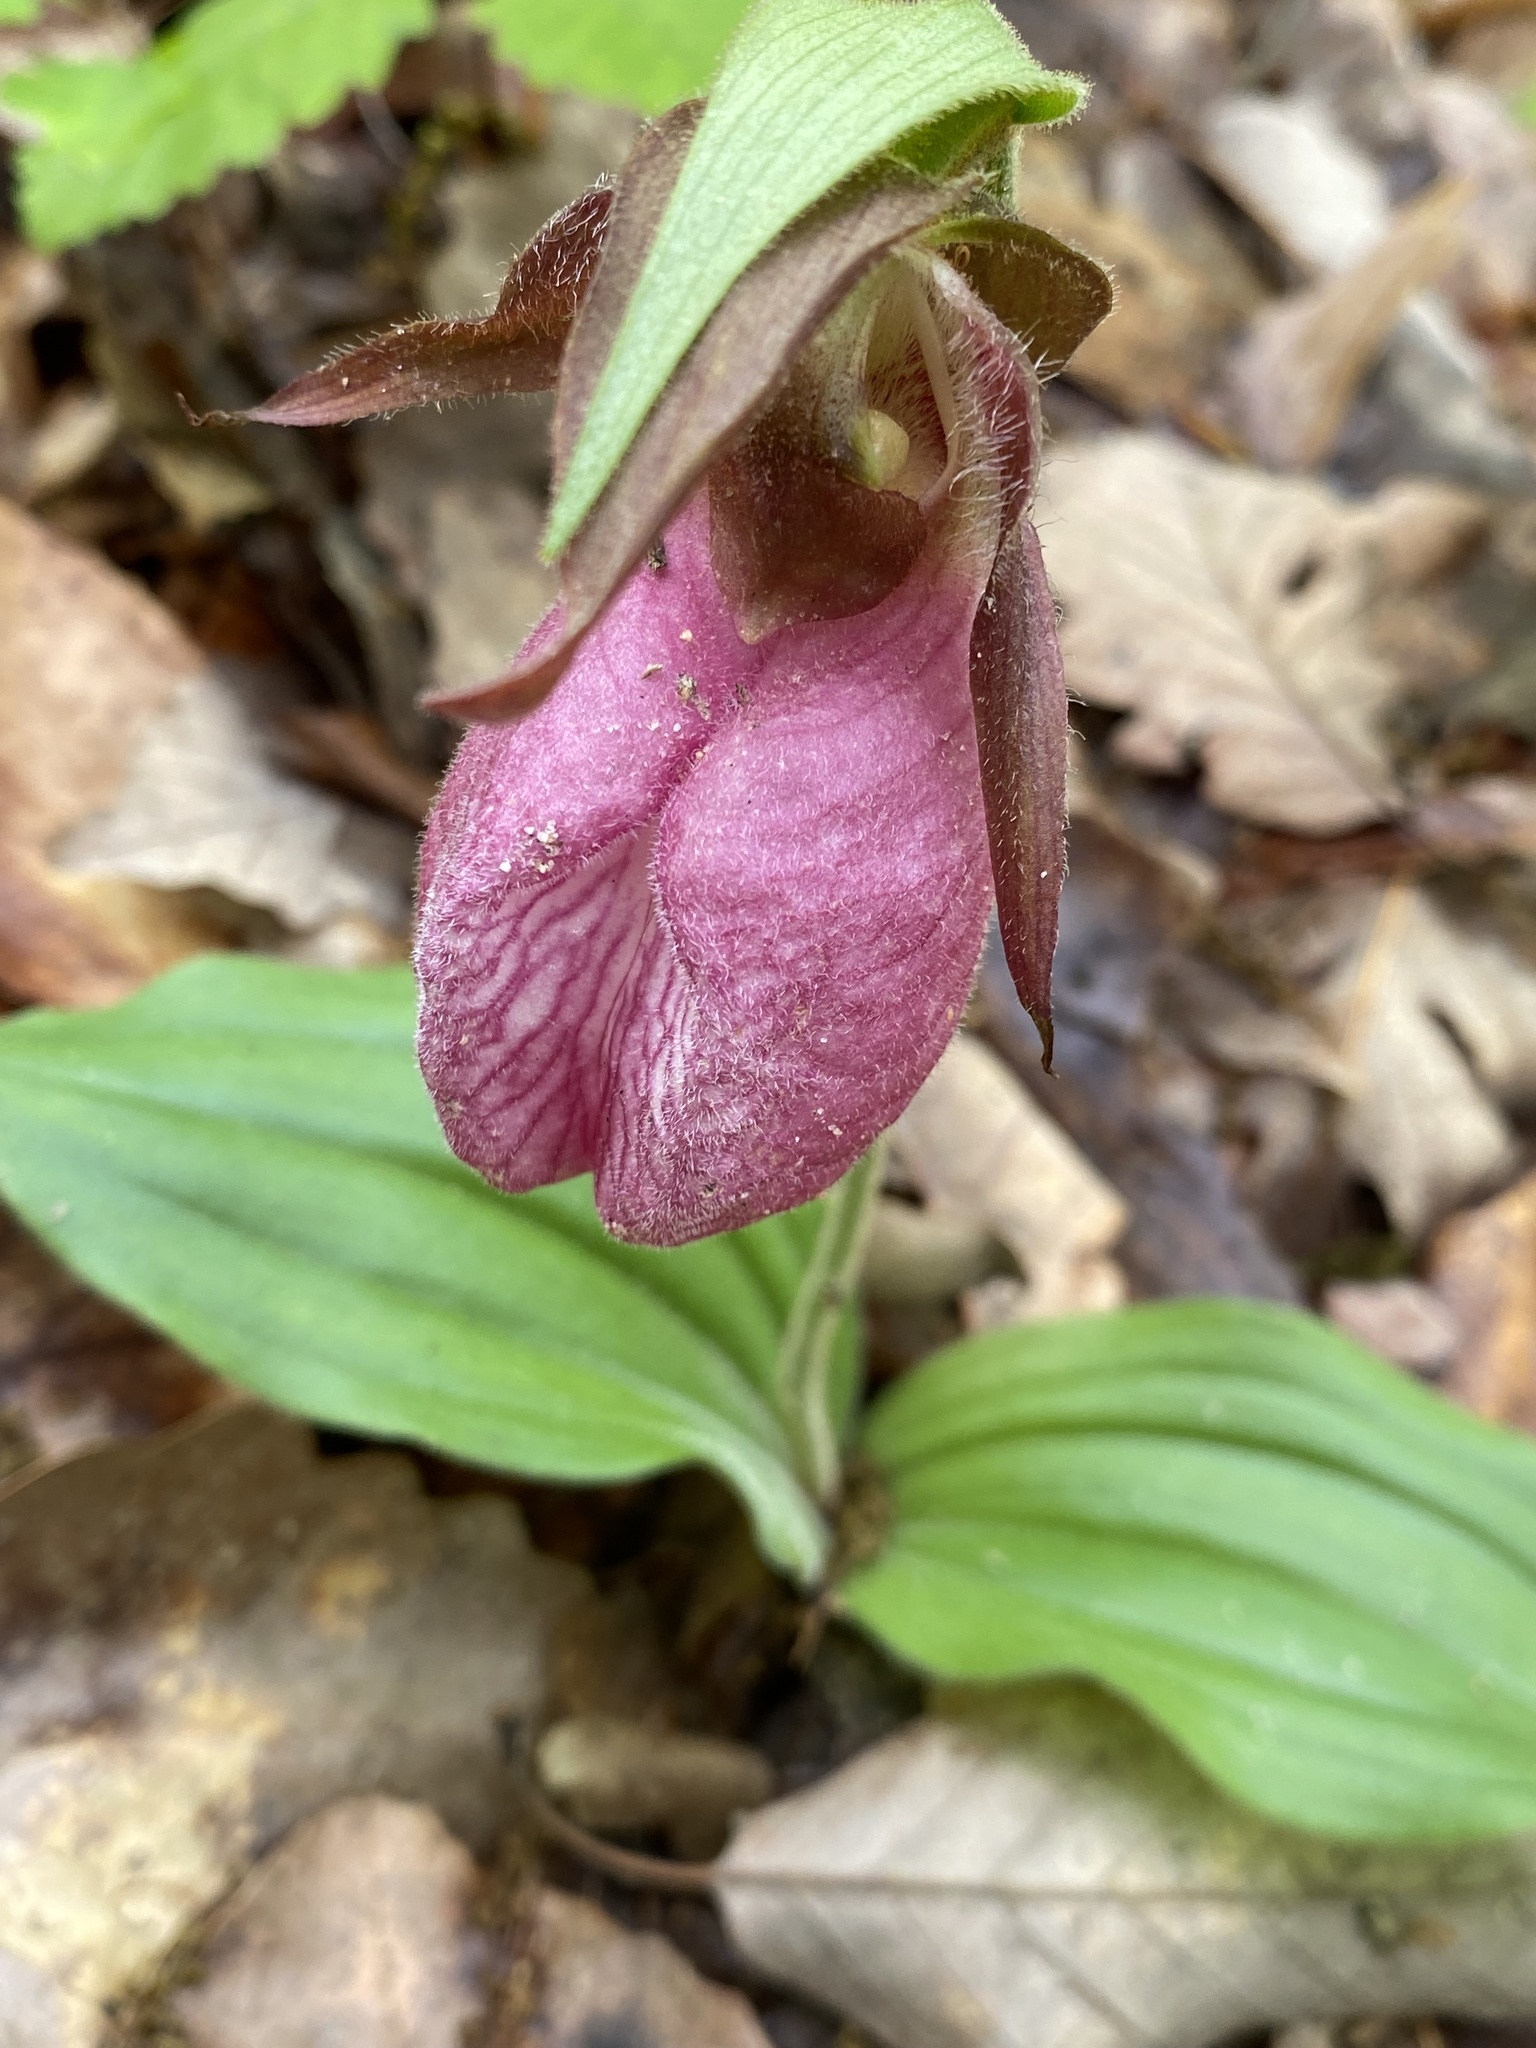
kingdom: Plantae
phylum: Tracheophyta
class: Liliopsida
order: Asparagales
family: Orchidaceae
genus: Cypripedium
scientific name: Cypripedium acaule
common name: Pink lady's-slipper
